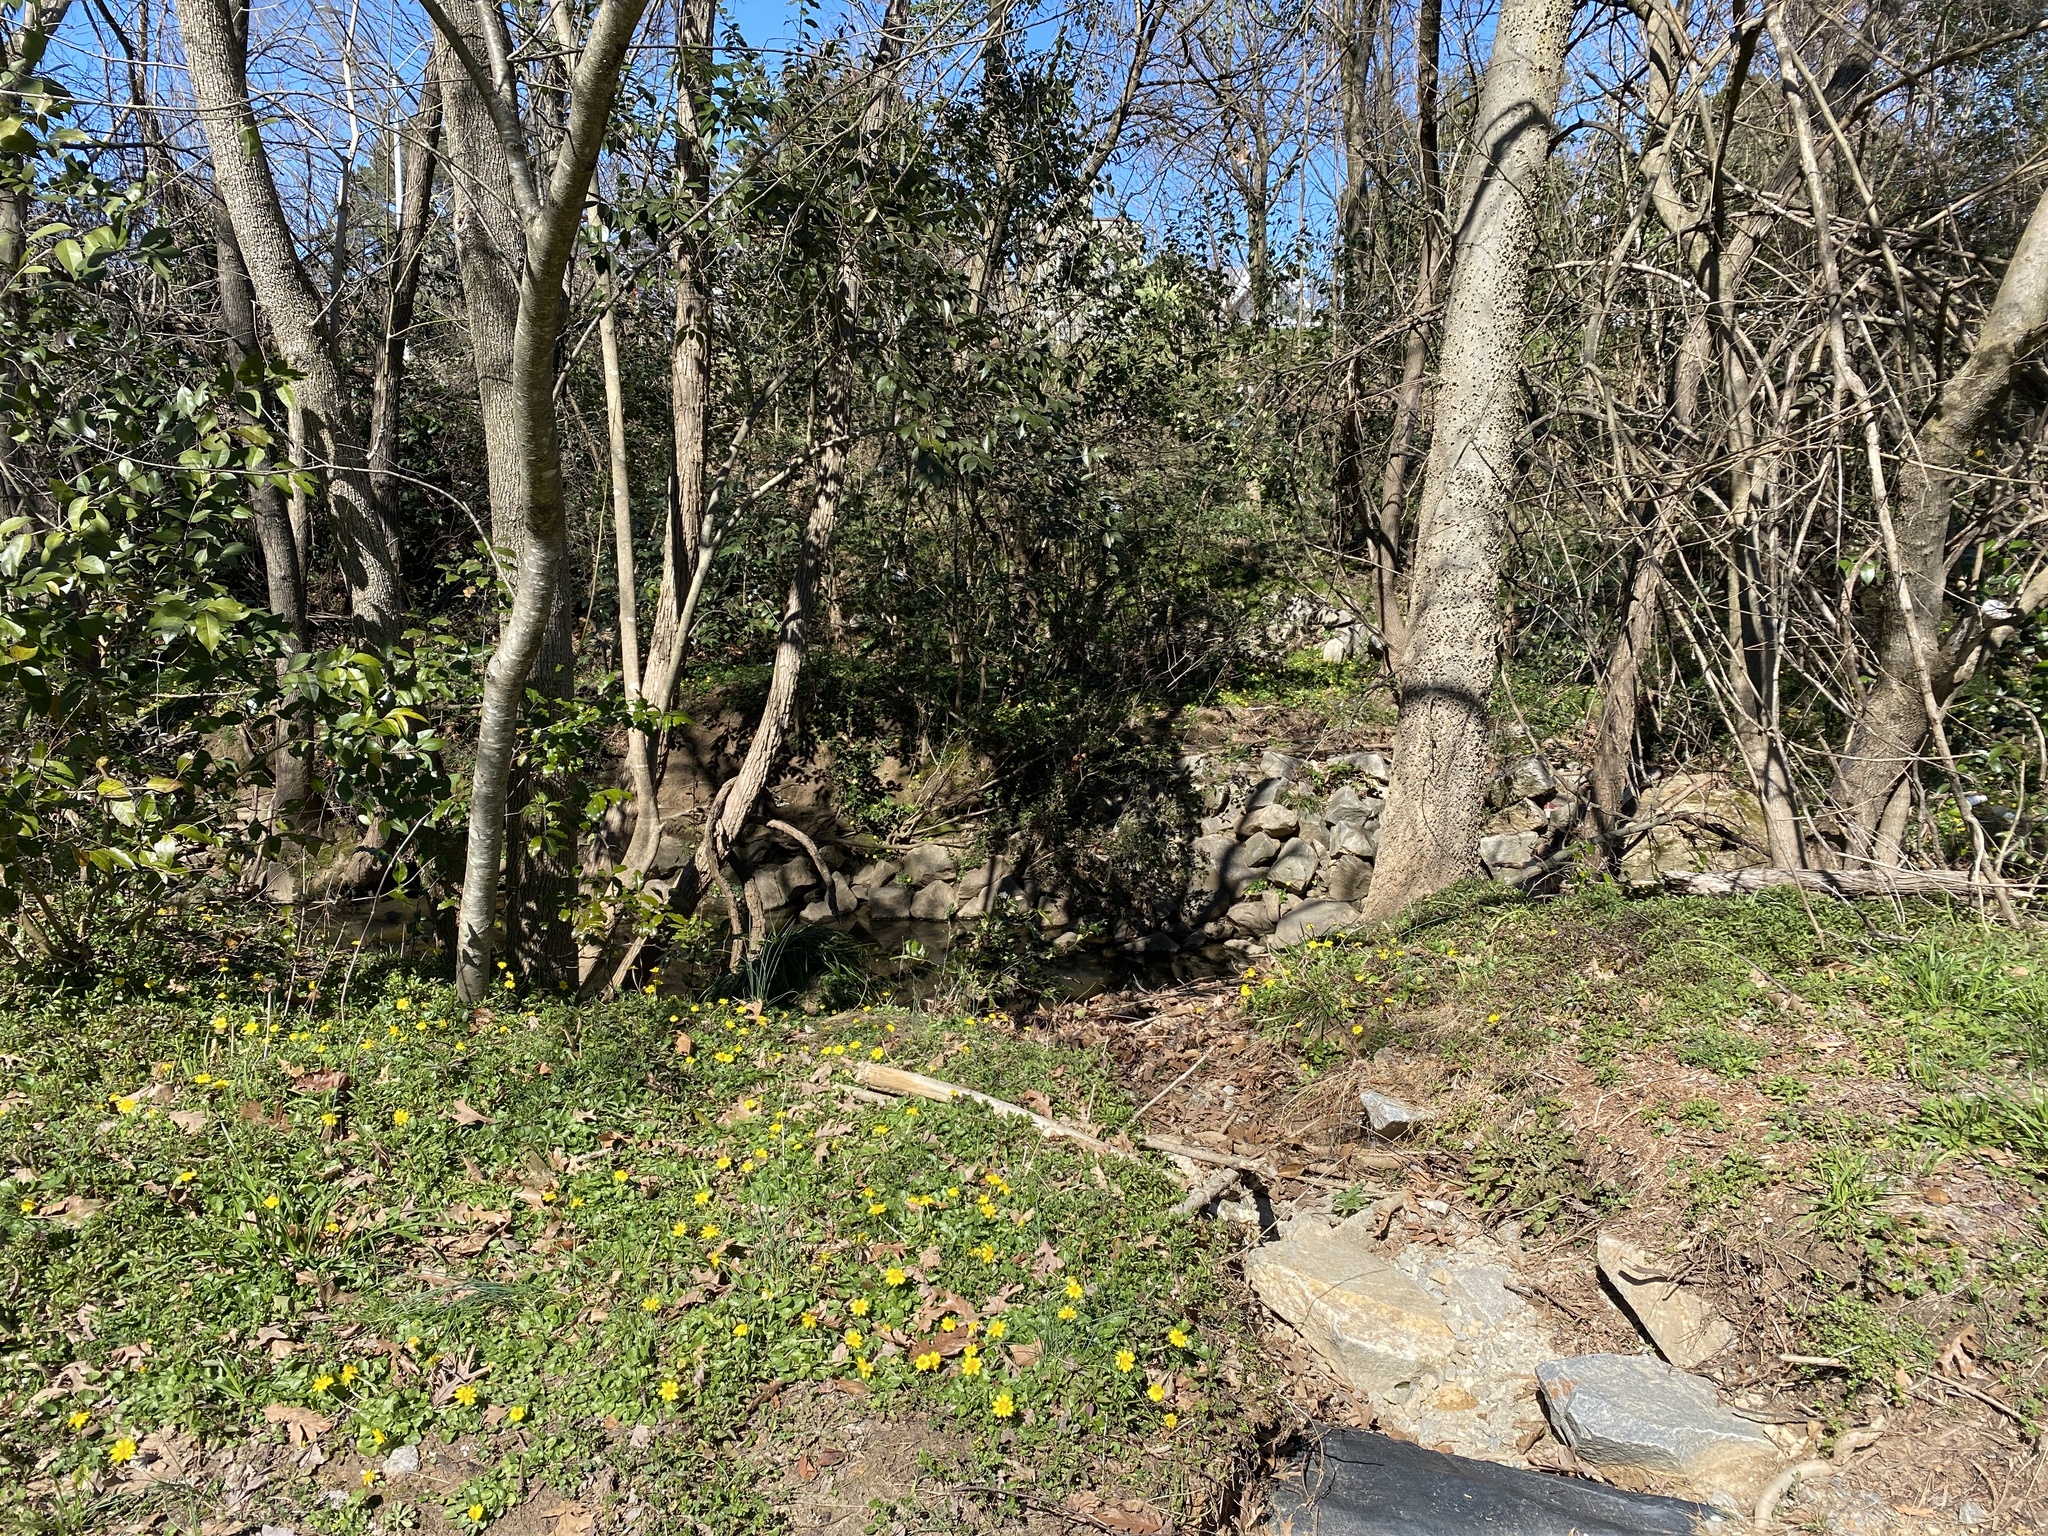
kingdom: Plantae
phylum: Tracheophyta
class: Magnoliopsida
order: Ranunculales
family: Ranunculaceae
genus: Ficaria
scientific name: Ficaria verna
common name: Lesser celandine
